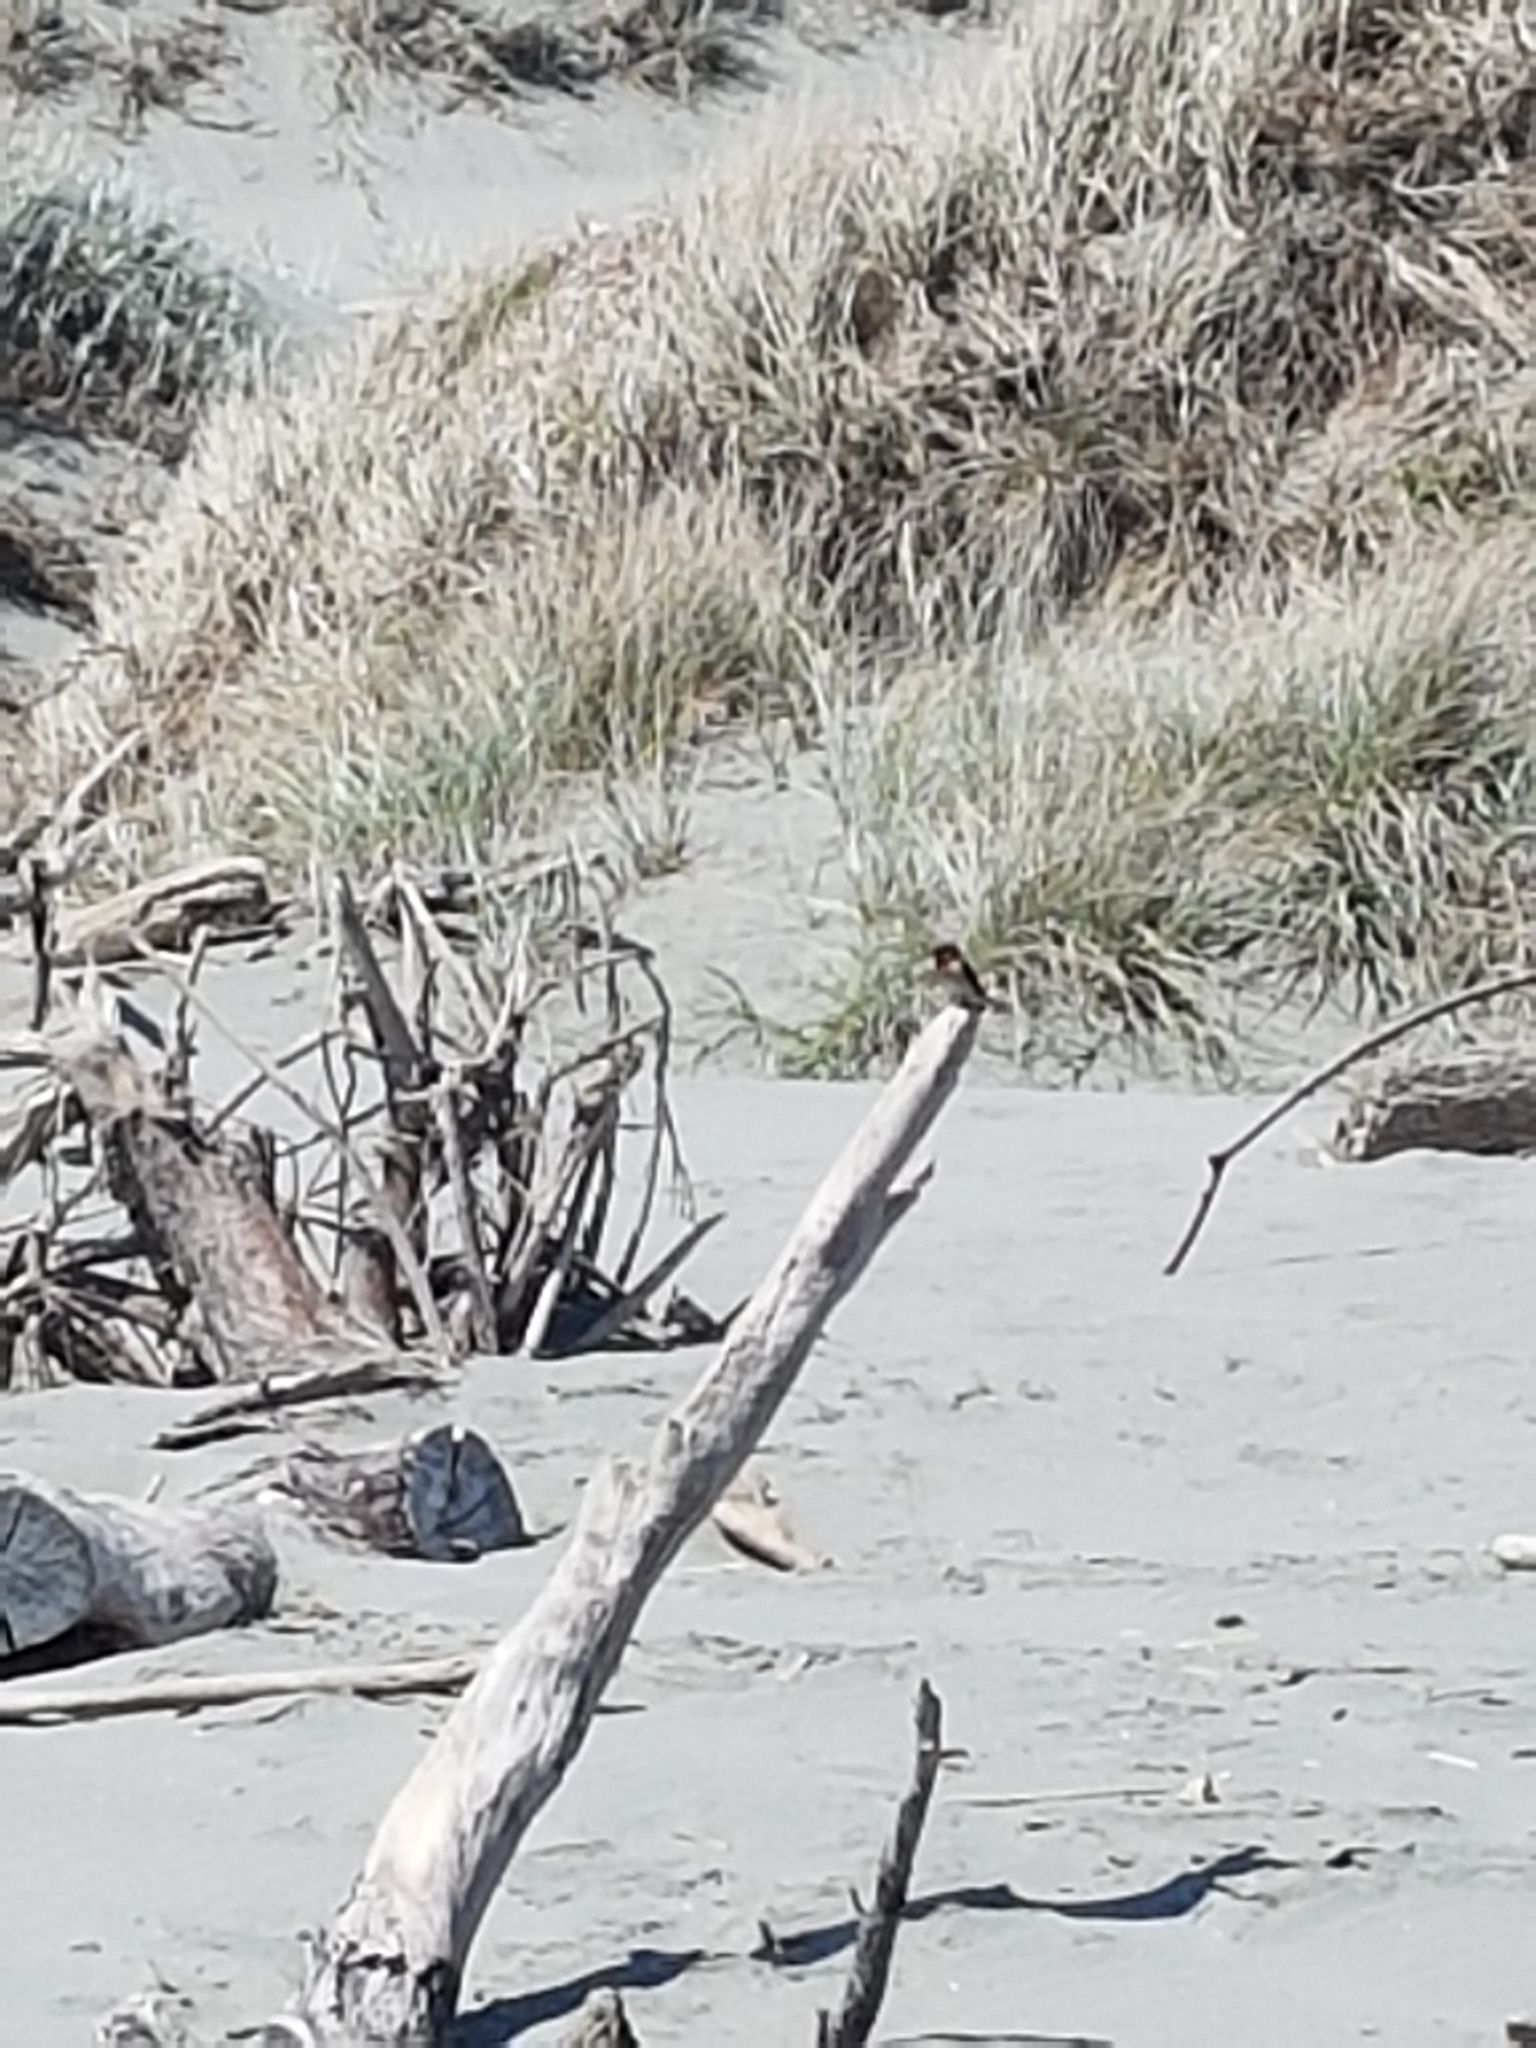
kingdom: Animalia
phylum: Chordata
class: Aves
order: Passeriformes
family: Hirundinidae
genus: Hirundo
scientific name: Hirundo neoxena
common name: Welcome swallow
